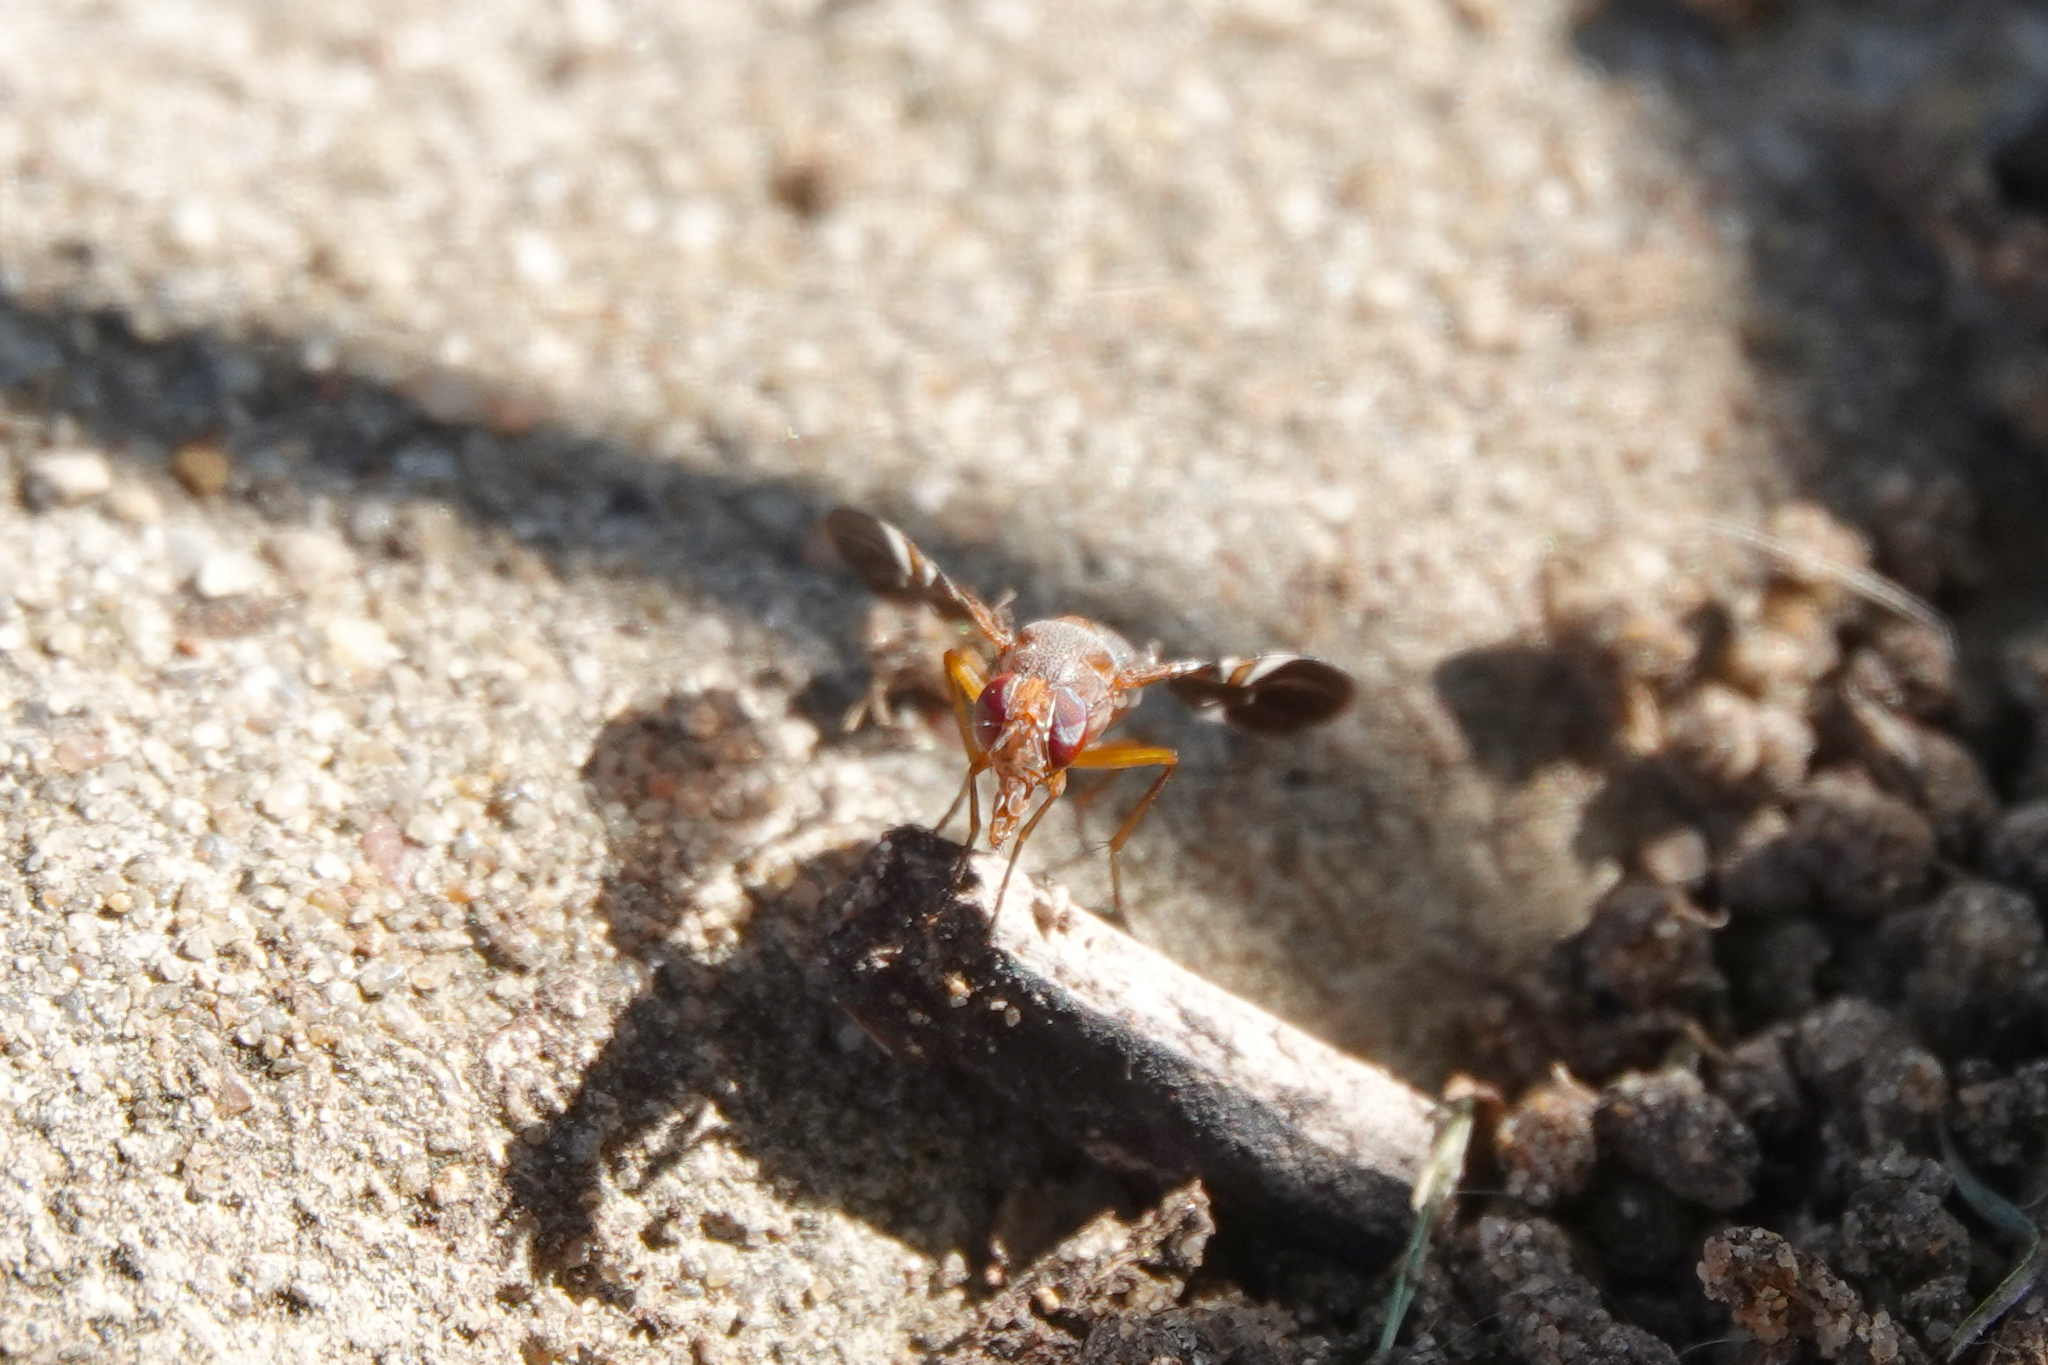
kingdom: Animalia
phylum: Arthropoda
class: Insecta
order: Diptera
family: Ulidiidae
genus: Delphinia
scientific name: Delphinia picta
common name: Common picture-winged fly
